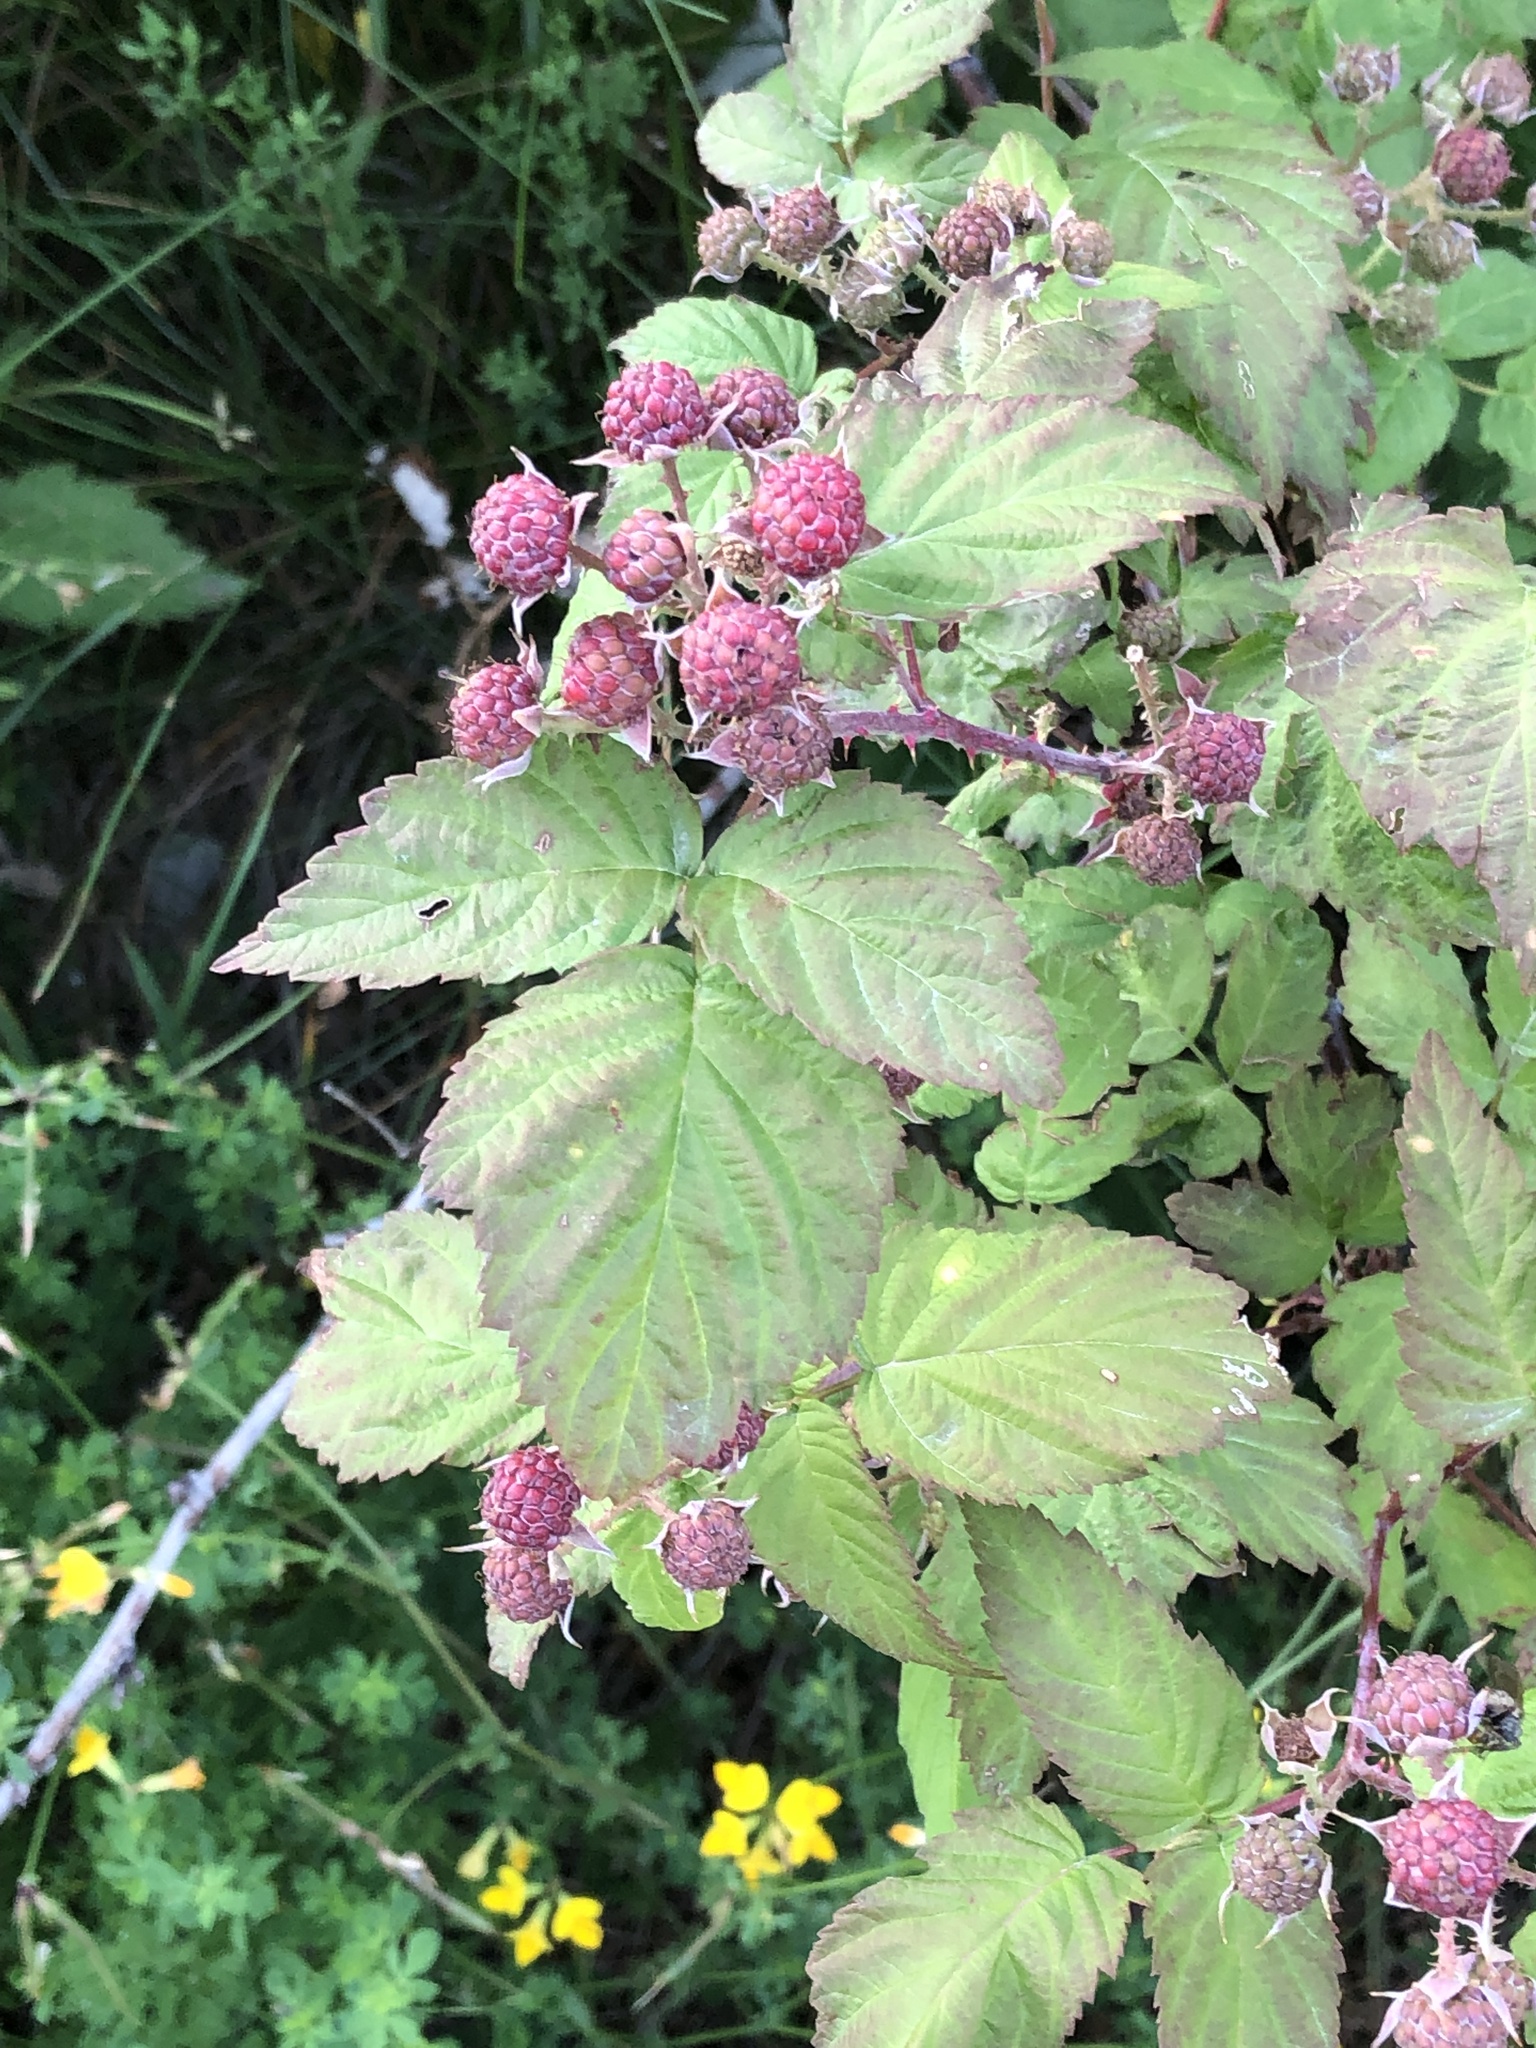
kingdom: Plantae
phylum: Tracheophyta
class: Magnoliopsida
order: Rosales
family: Rosaceae
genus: Rubus
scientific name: Rubus occidentalis
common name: Black raspberry
